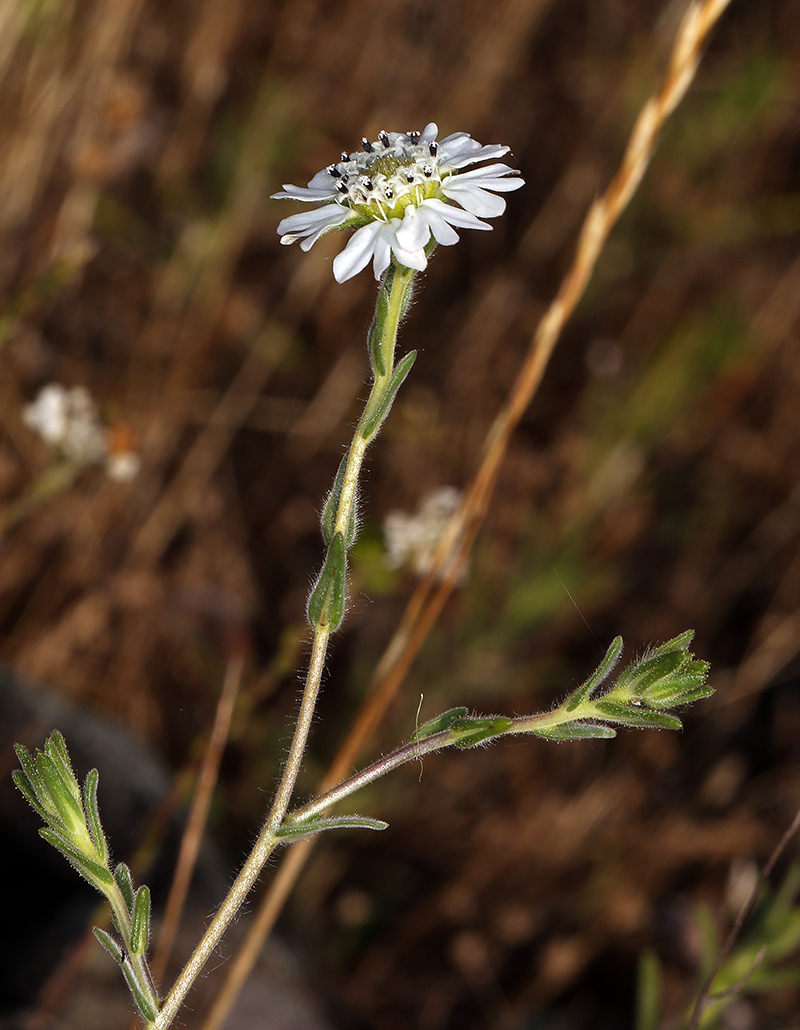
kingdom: Plantae
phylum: Tracheophyta
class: Magnoliopsida
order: Asterales
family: Asteraceae
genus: Hemizonia
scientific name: Hemizonia congesta
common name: Hayfield tarweed
